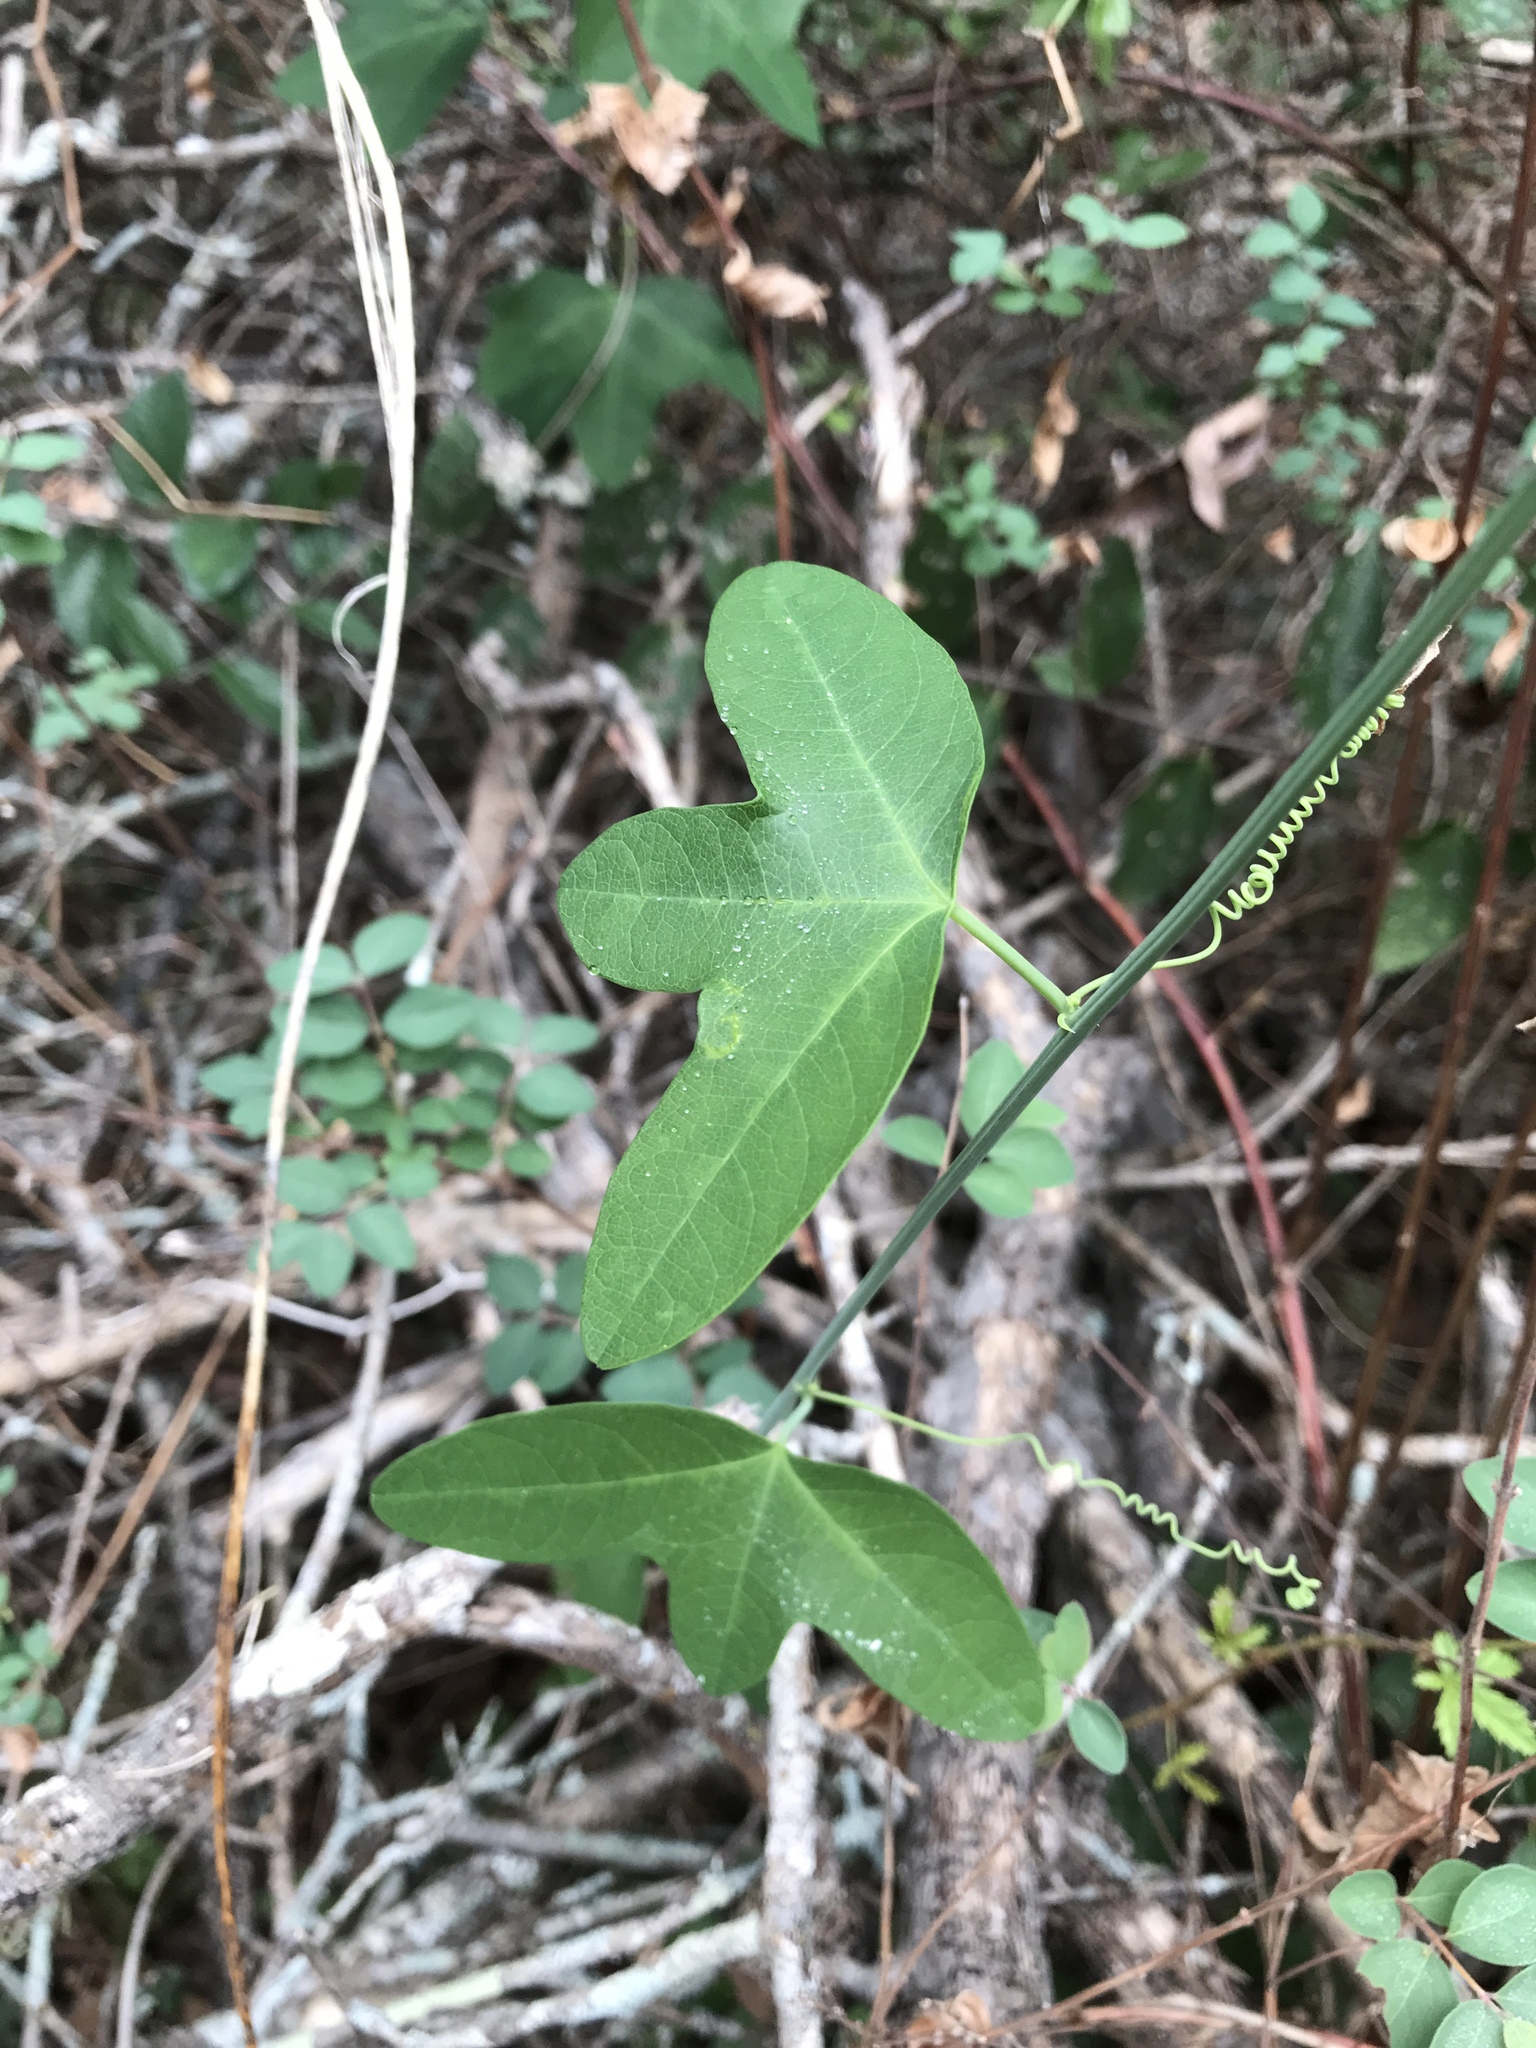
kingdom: Plantae
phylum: Tracheophyta
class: Magnoliopsida
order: Malpighiales
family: Passifloraceae
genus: Passiflora
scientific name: Passiflora lutea
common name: Yellow passionflower
